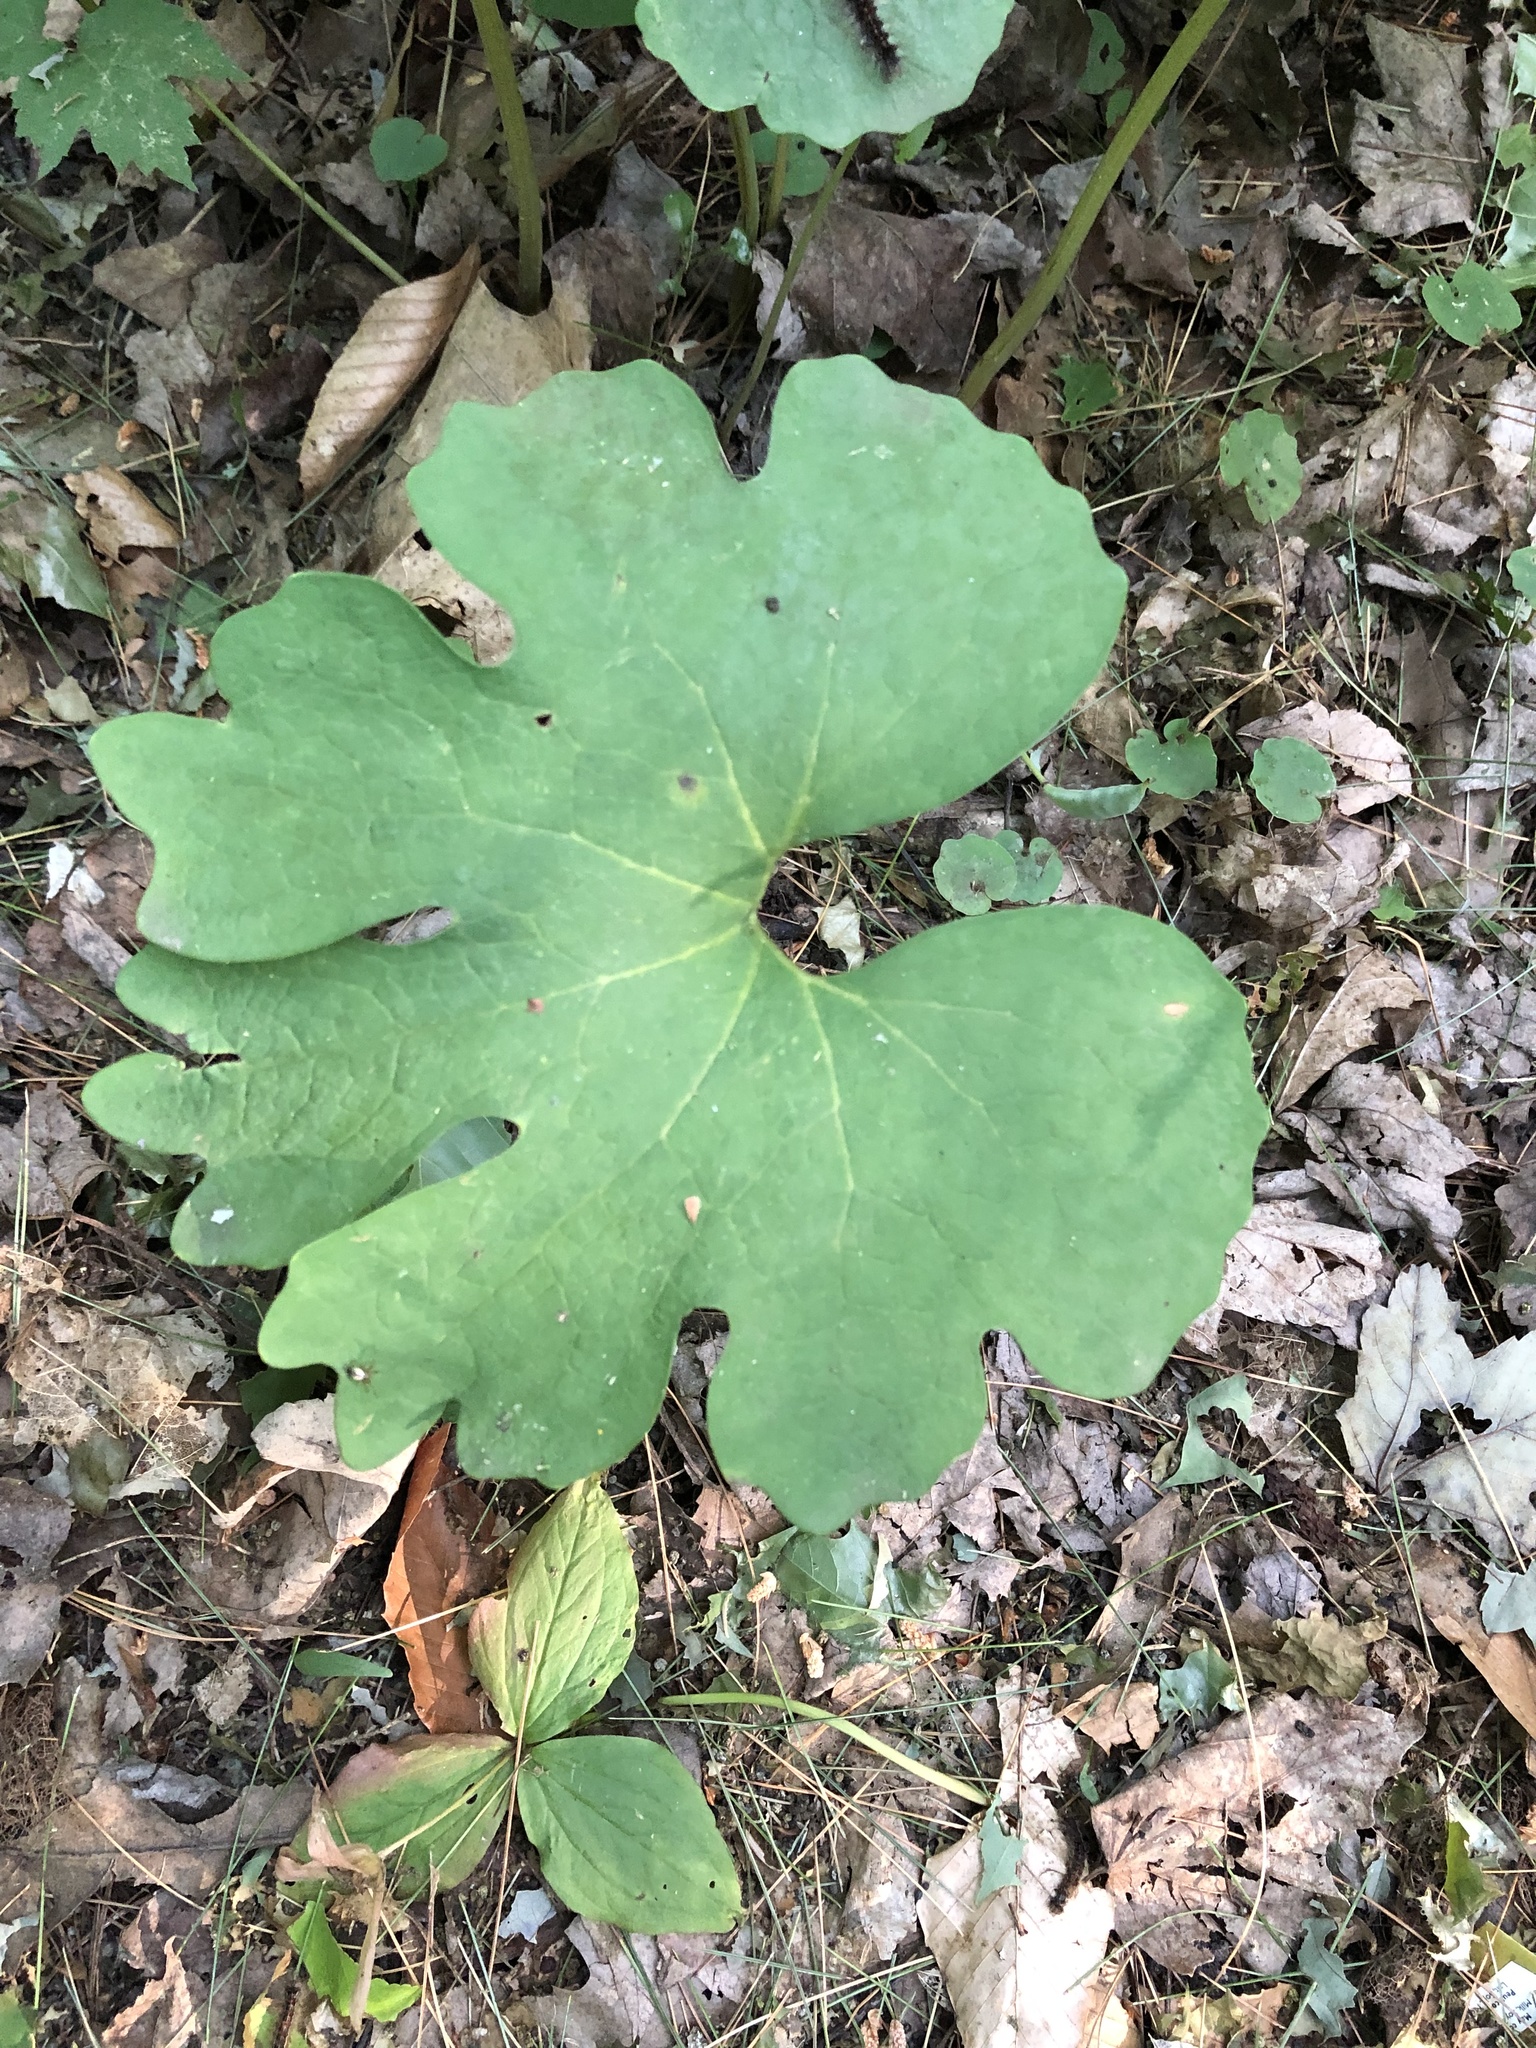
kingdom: Plantae
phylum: Tracheophyta
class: Magnoliopsida
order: Ranunculales
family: Papaveraceae
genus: Sanguinaria
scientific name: Sanguinaria canadensis
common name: Bloodroot
